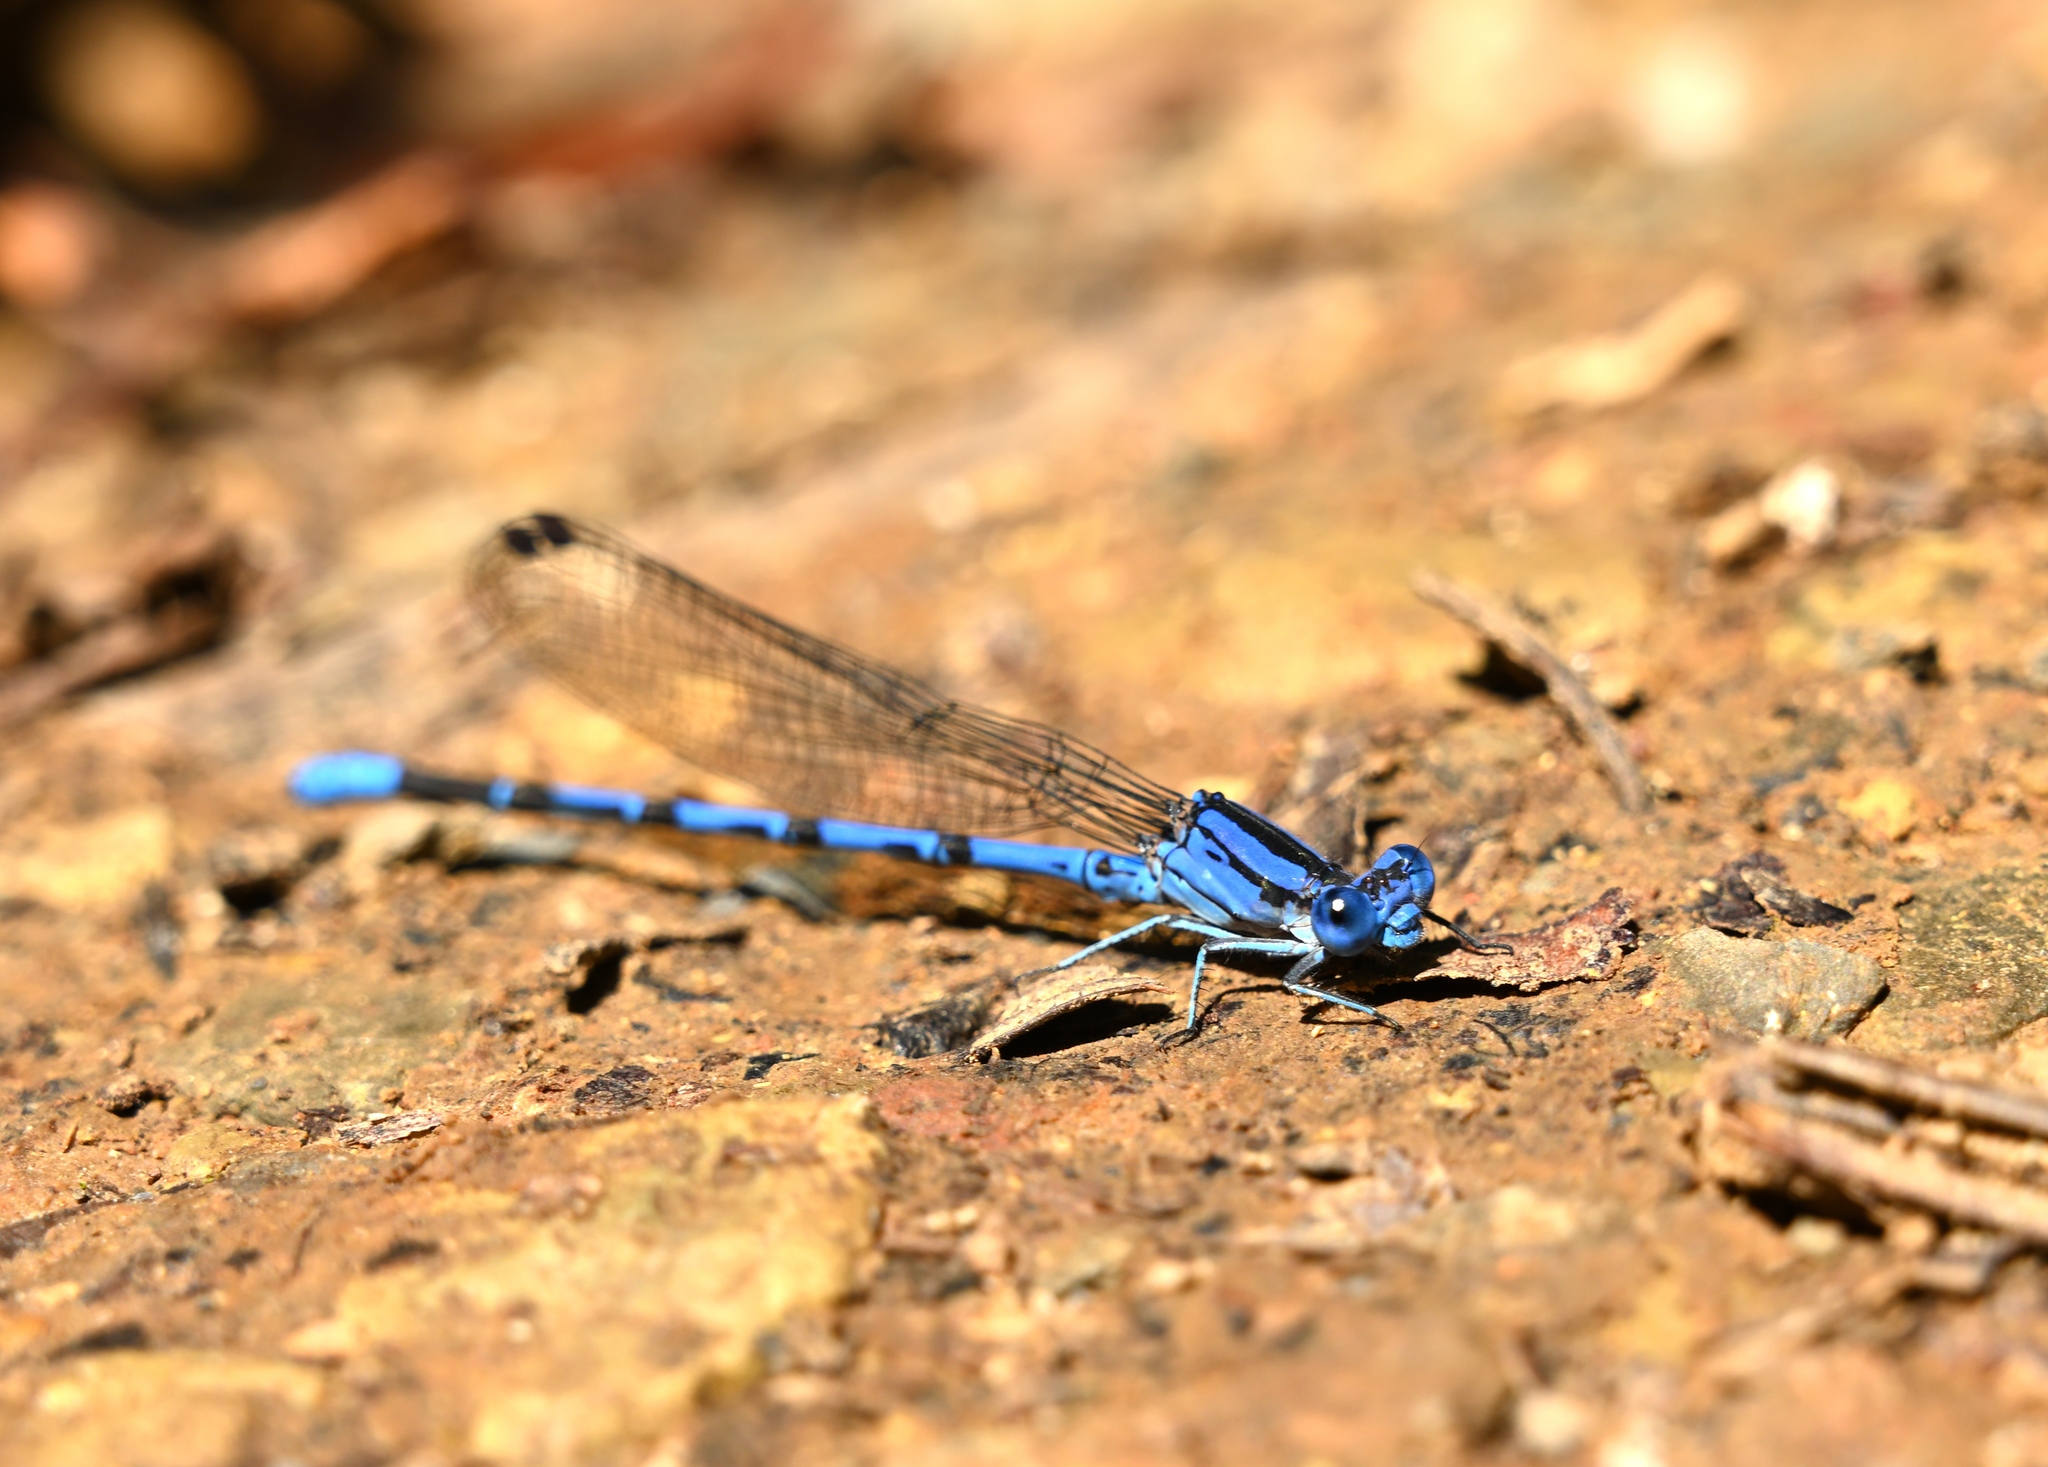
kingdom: Animalia
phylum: Arthropoda
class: Insecta
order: Odonata
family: Coenagrionidae
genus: Argia
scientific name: Argia funebris
